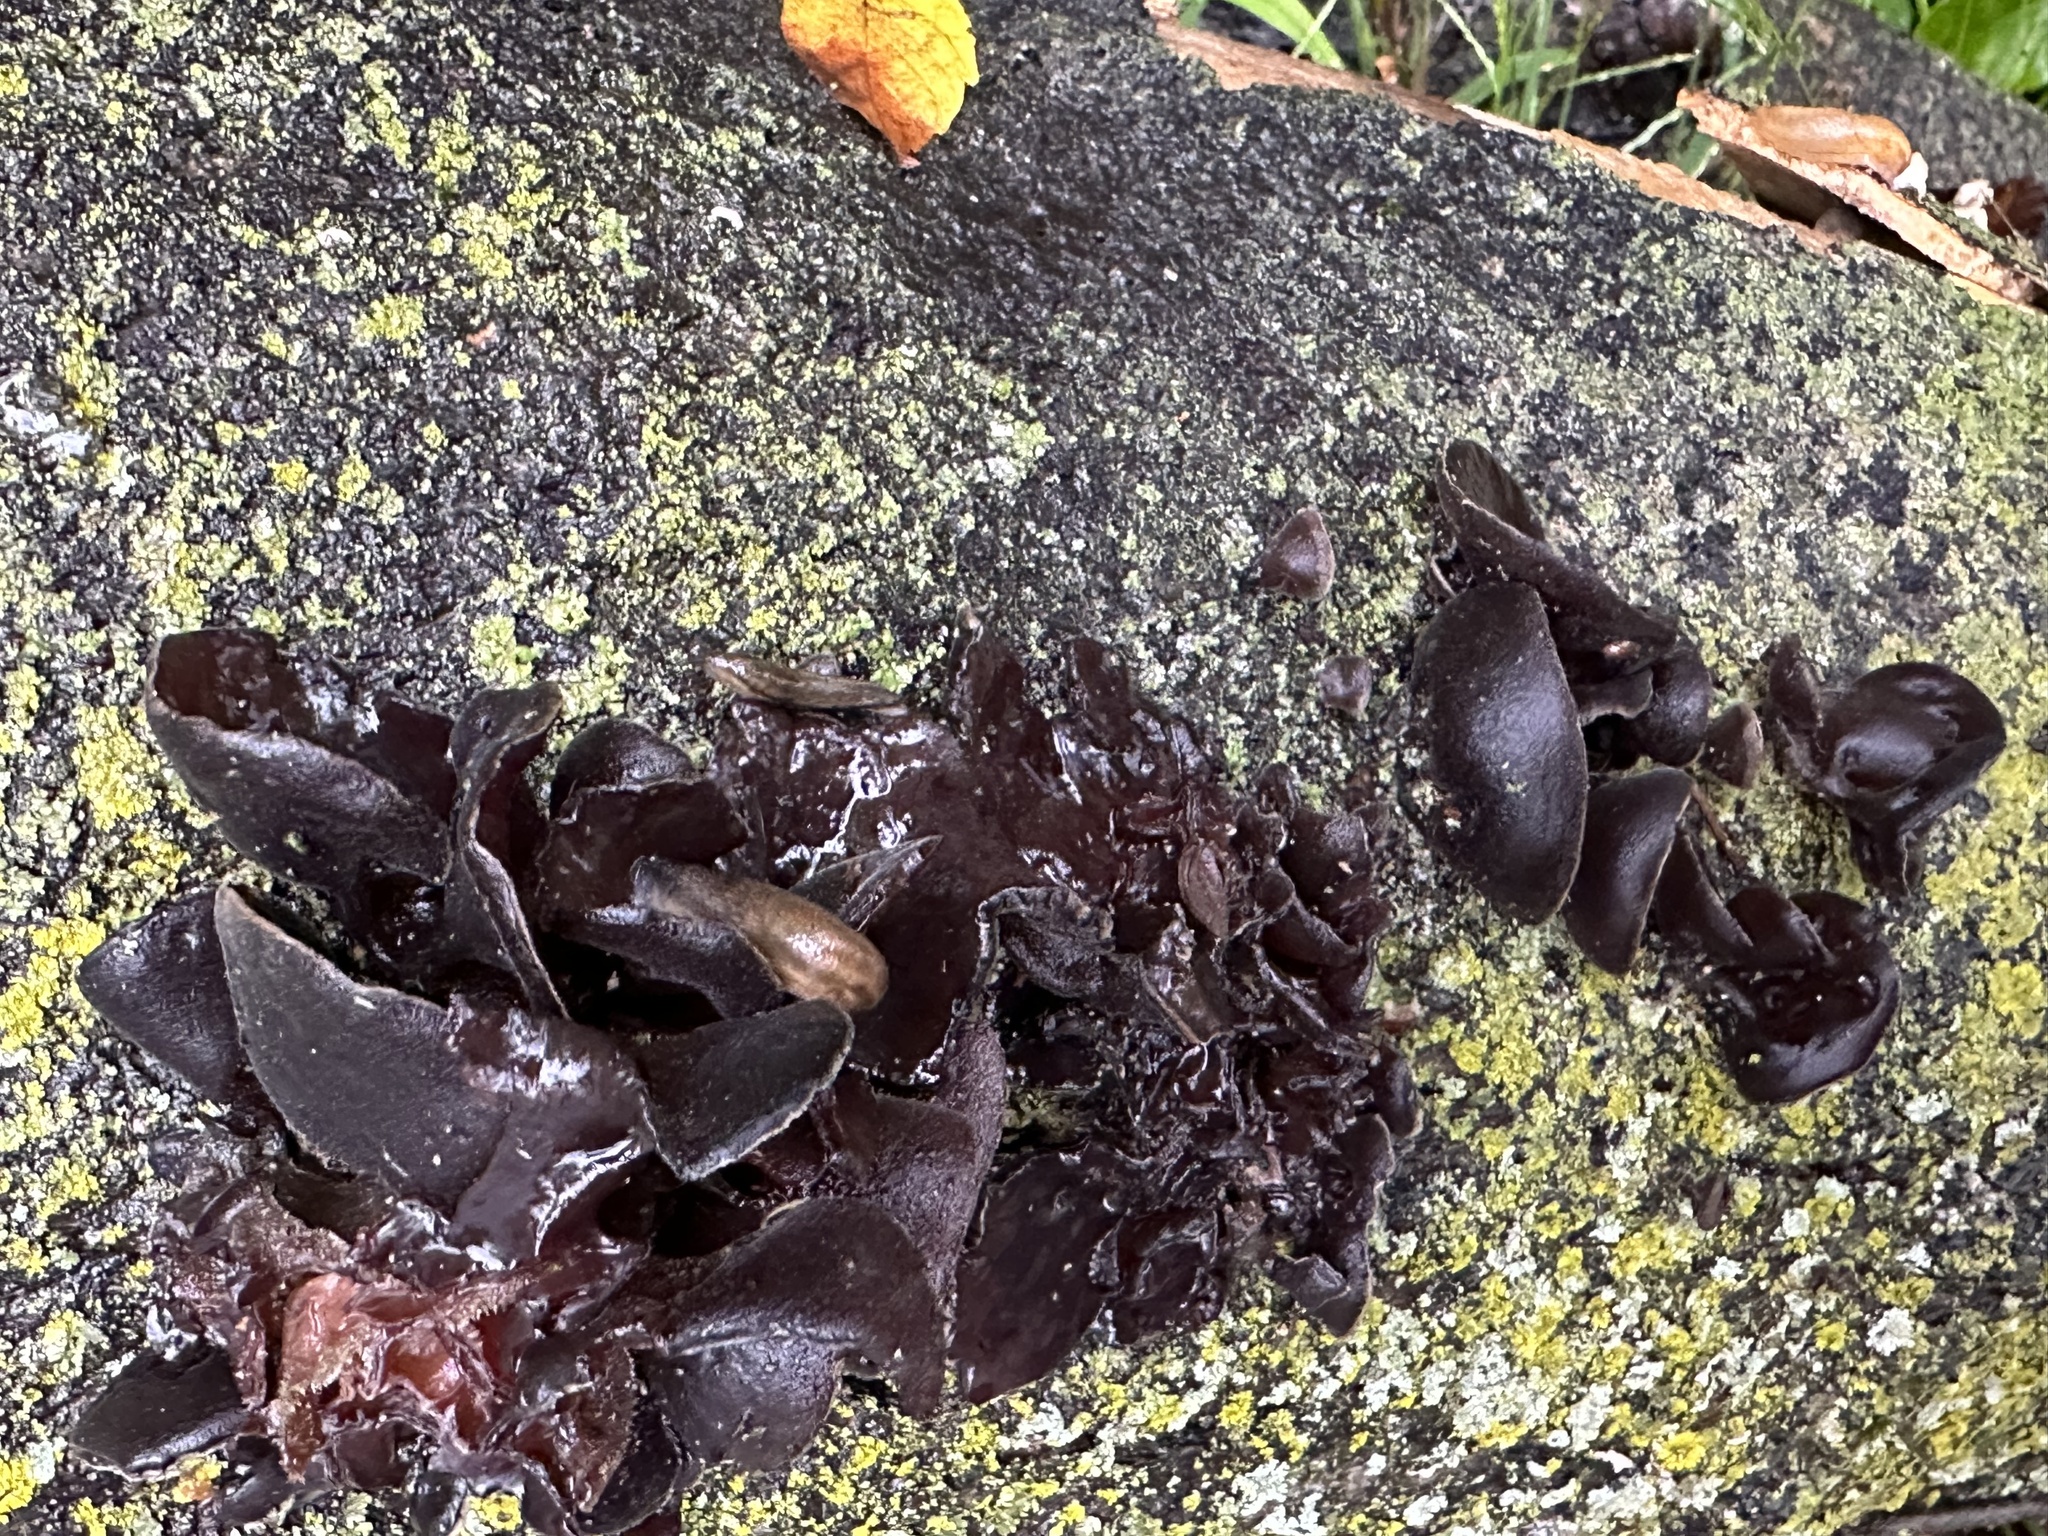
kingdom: Fungi
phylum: Basidiomycota
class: Agaricomycetes
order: Auriculariales
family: Auriculariaceae
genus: Exidia
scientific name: Exidia
